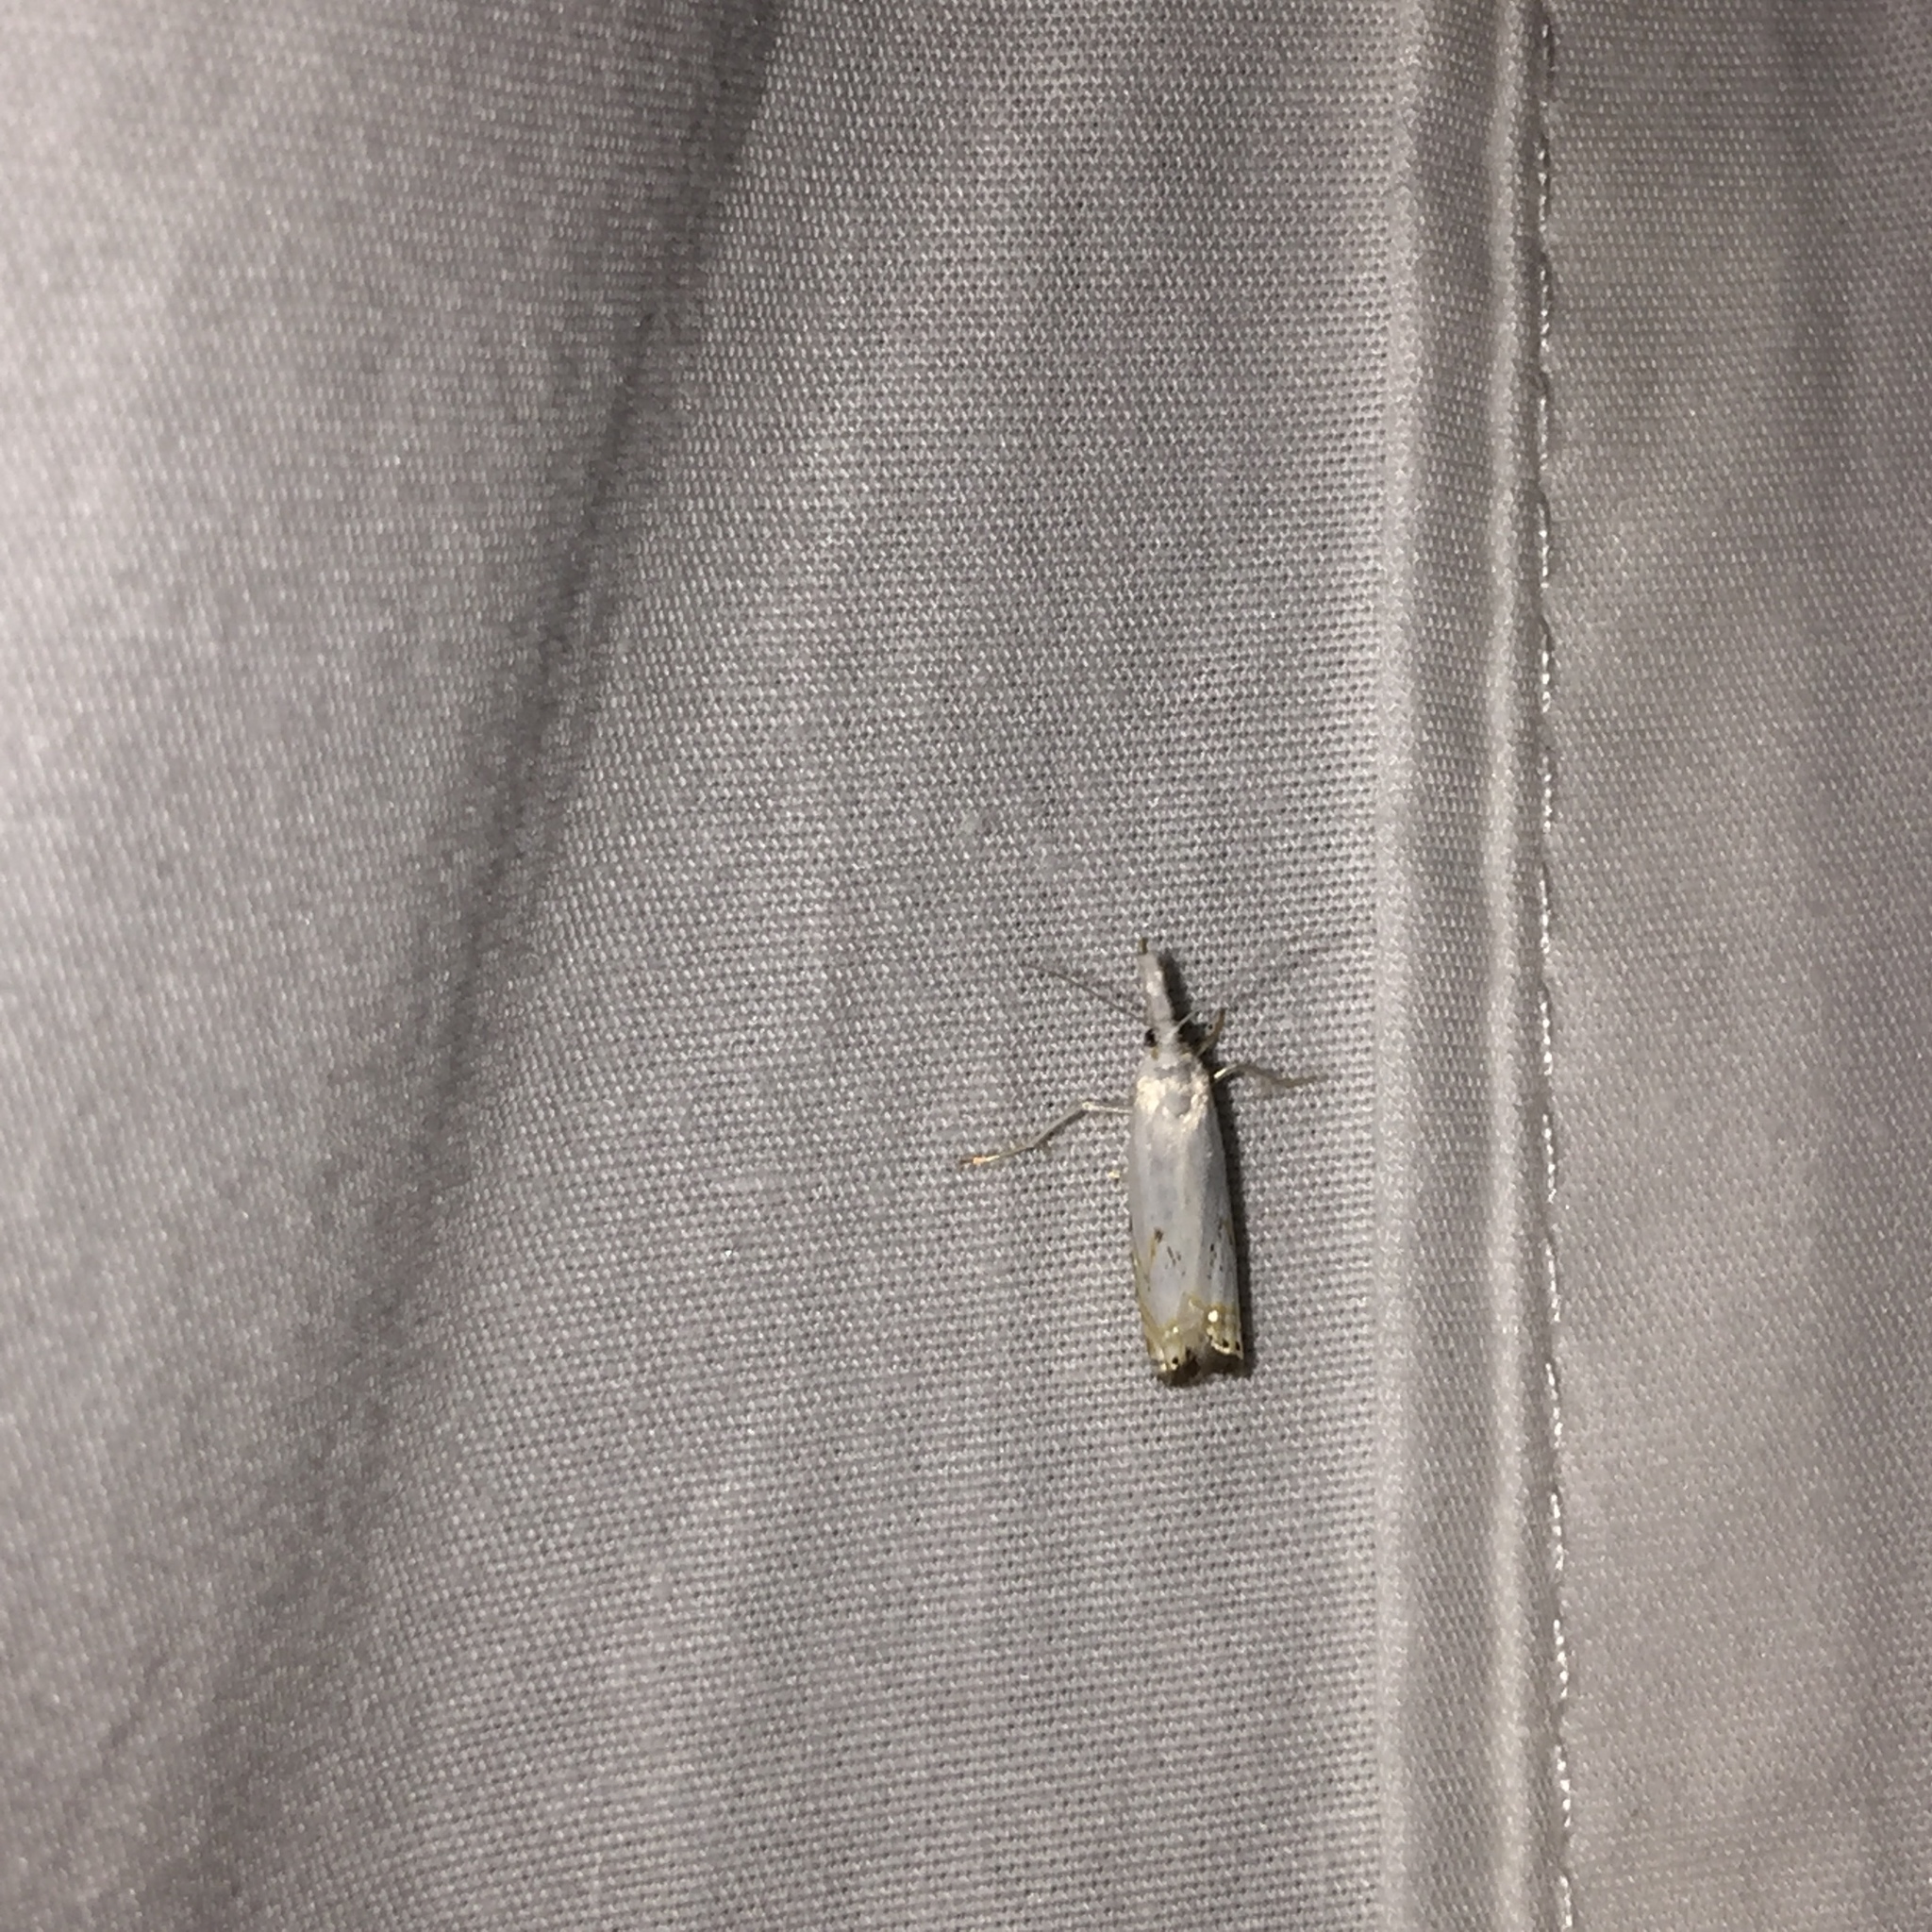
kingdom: Animalia
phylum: Arthropoda
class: Insecta
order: Lepidoptera
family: Crambidae
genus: Crambus
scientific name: Crambus albellus
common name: Small white grass-veneer
